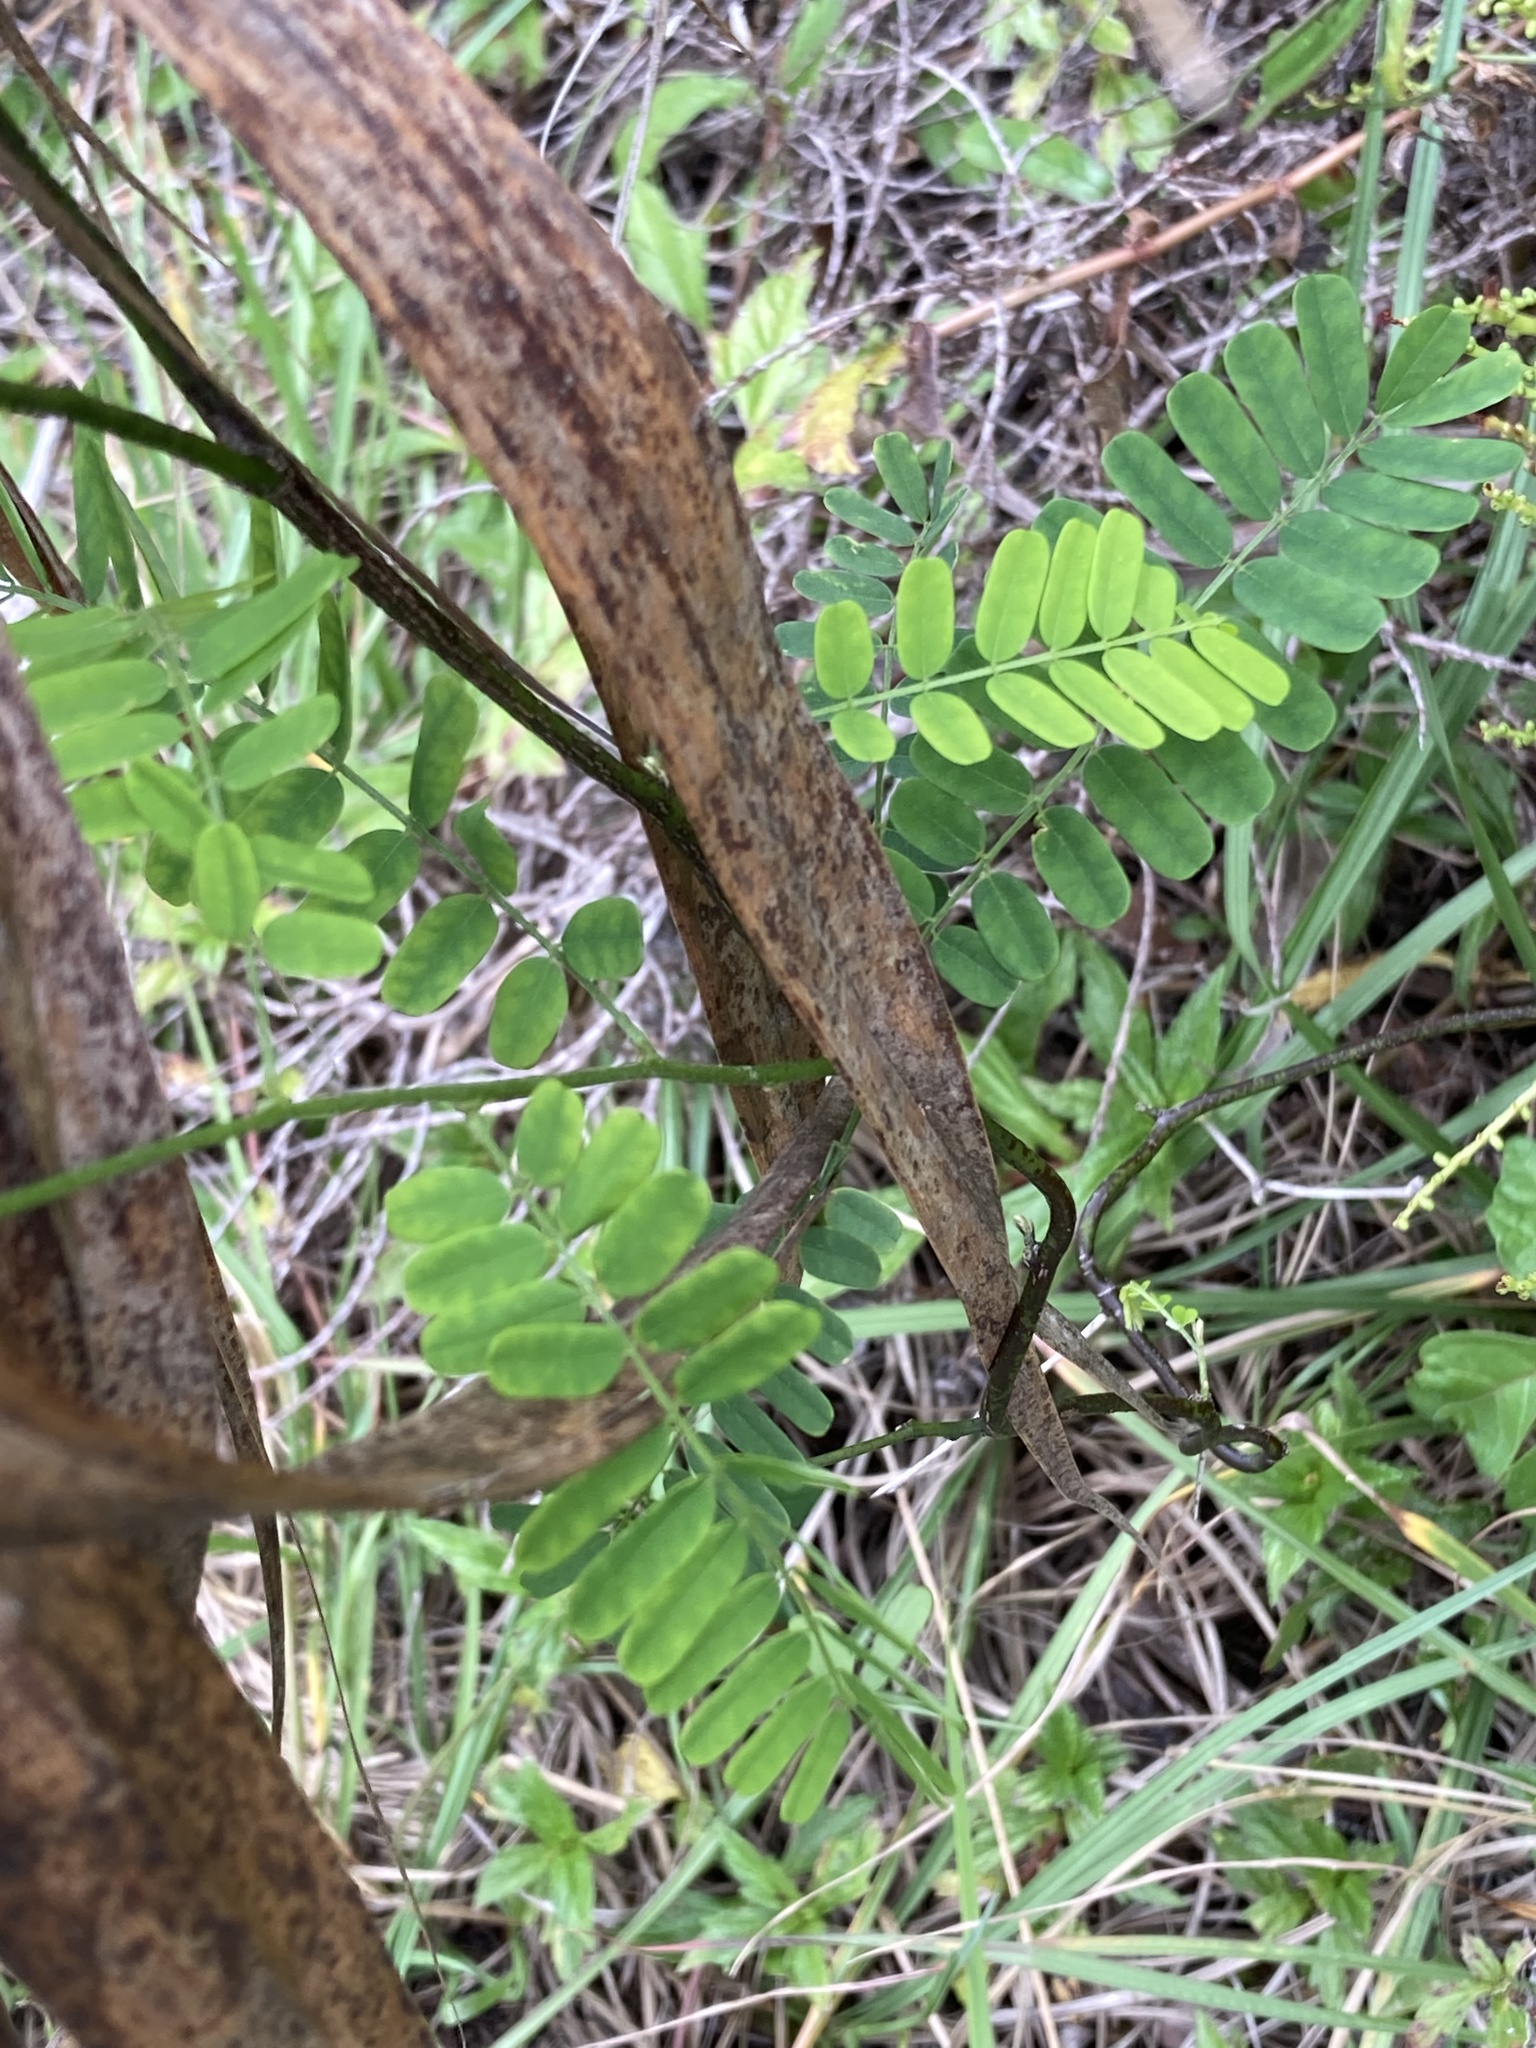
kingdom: Plantae
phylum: Tracheophyta
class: Magnoliopsida
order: Fabales
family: Fabaceae
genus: Abrus
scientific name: Abrus precatorius
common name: Rosarypea
